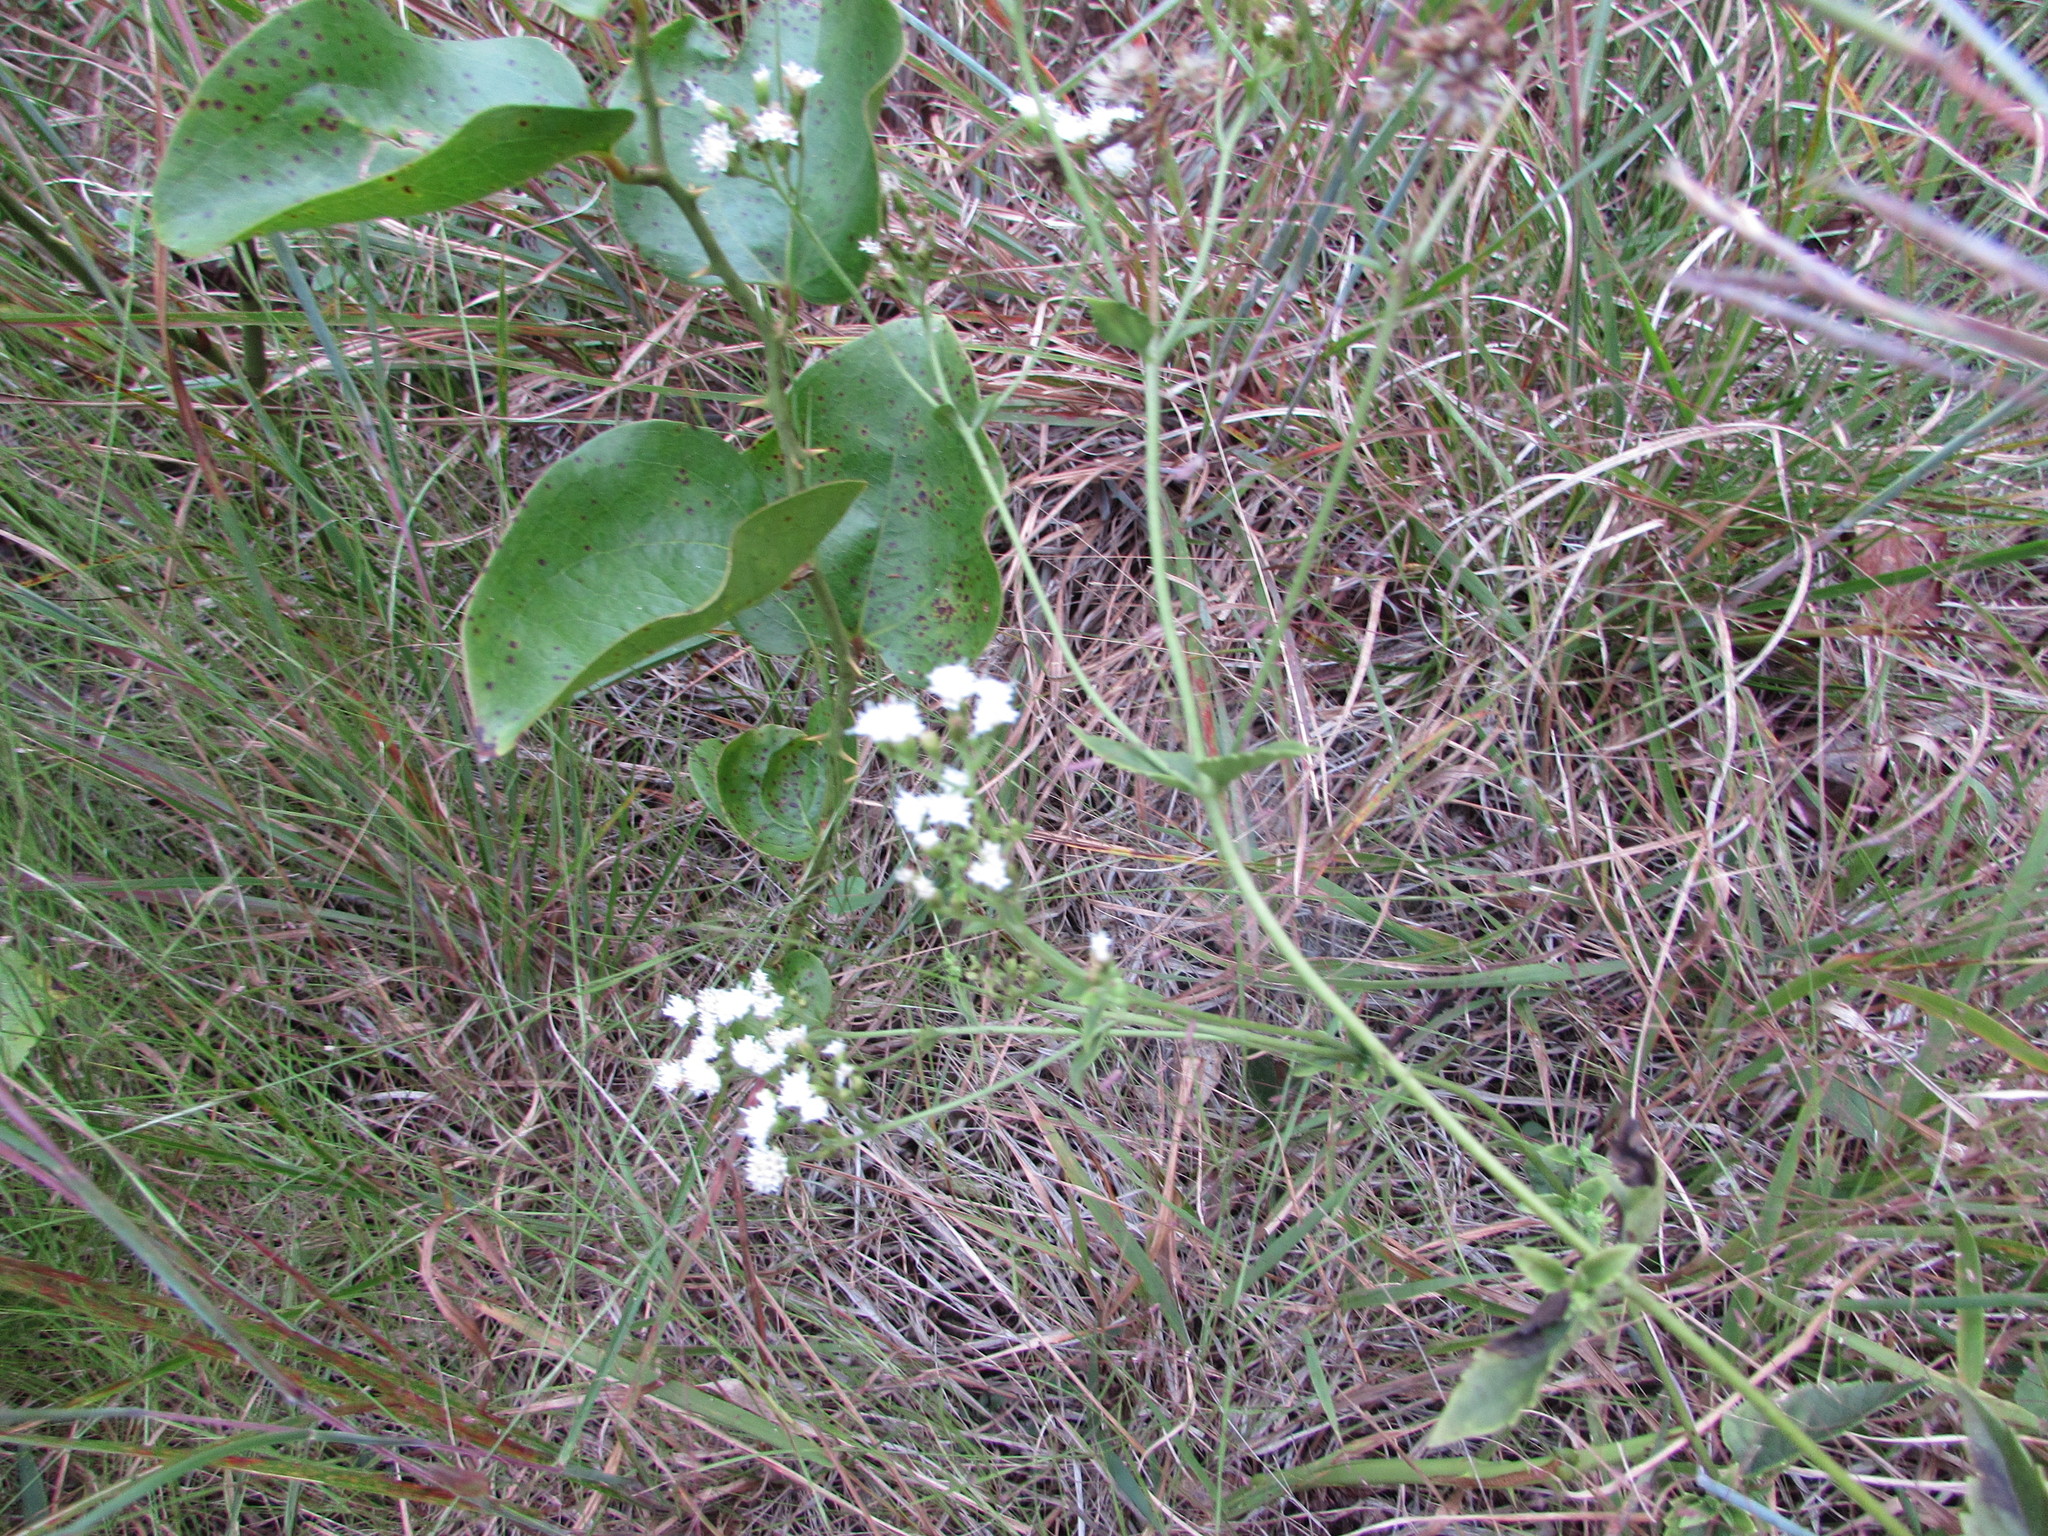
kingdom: Plantae
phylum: Tracheophyta
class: Magnoliopsida
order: Asterales
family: Asteraceae
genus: Ageratina
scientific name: Ageratina aromatica
